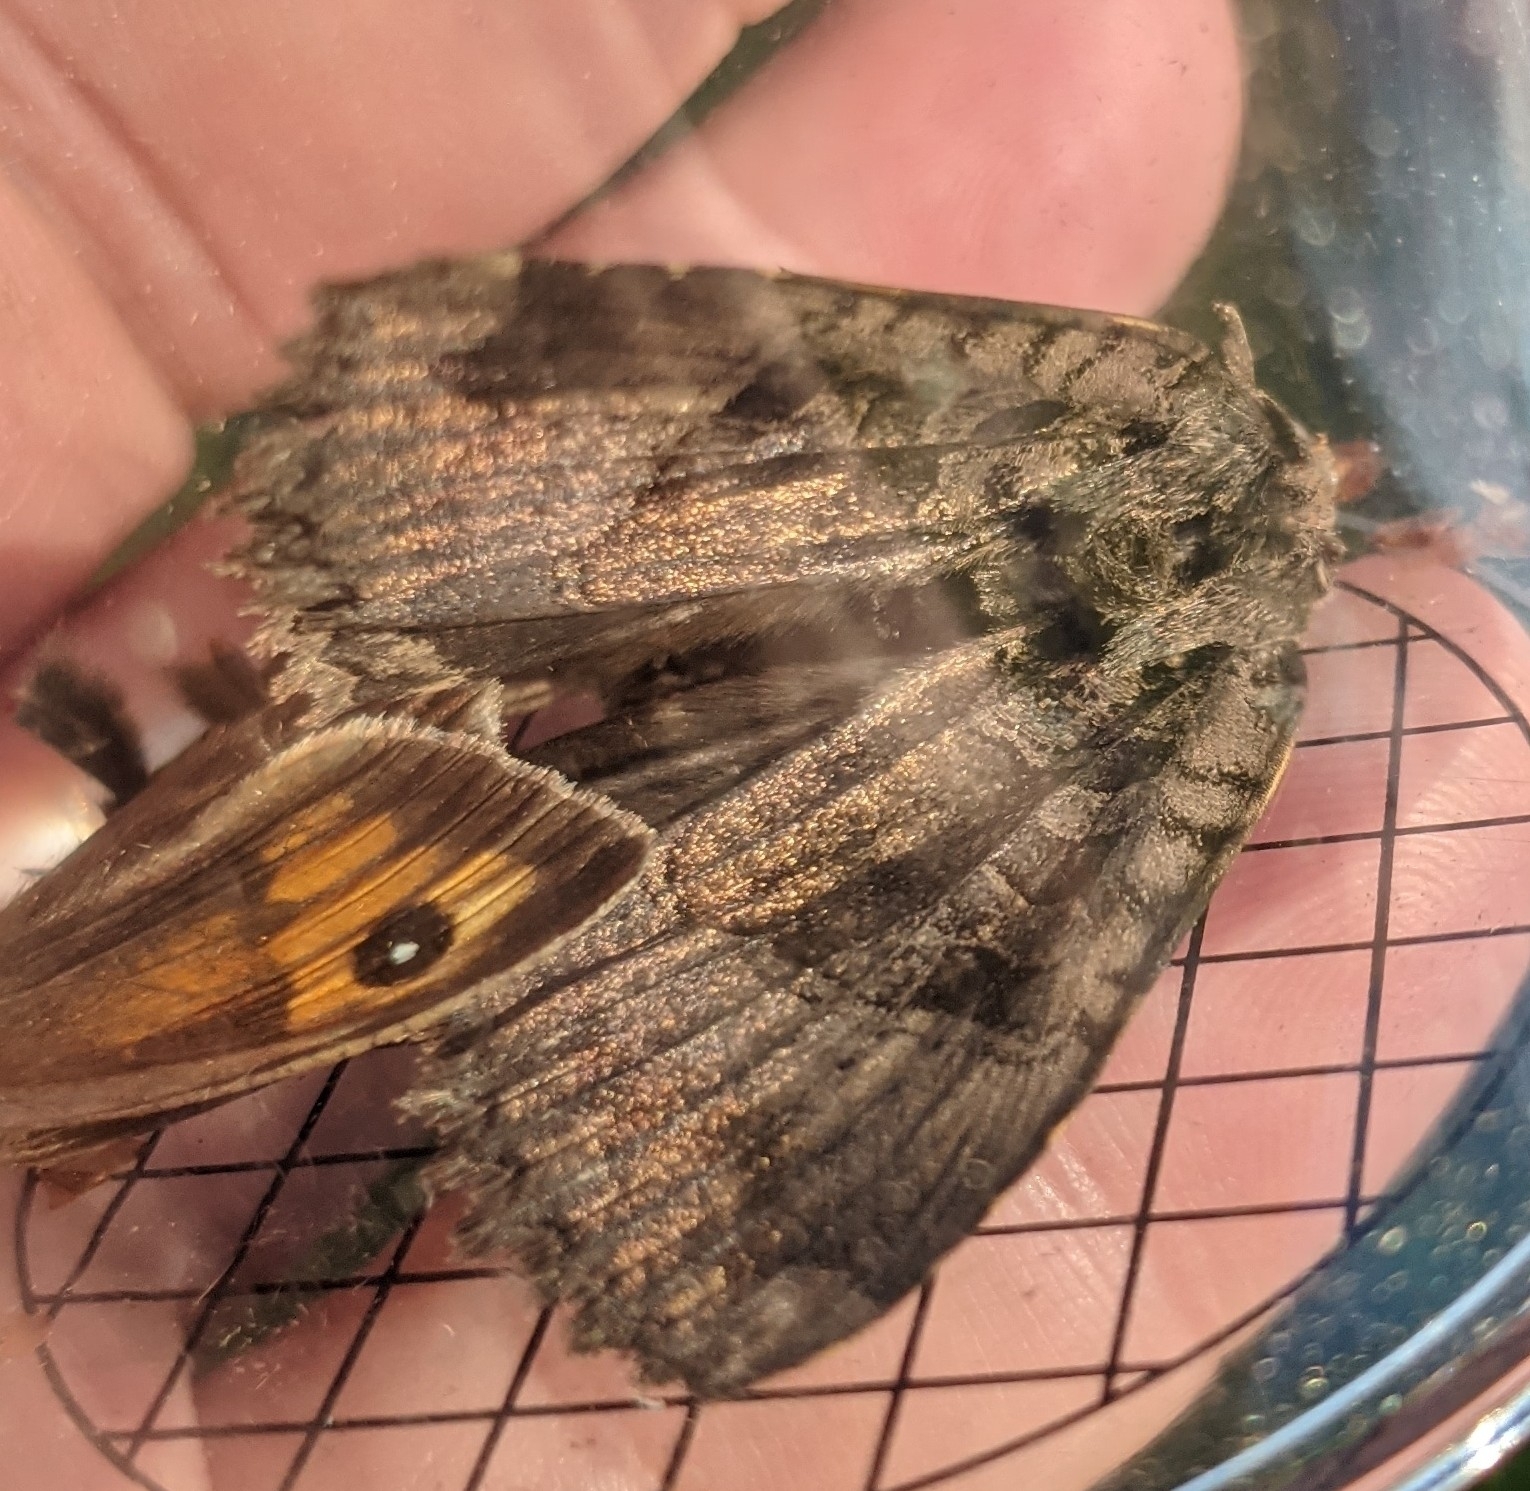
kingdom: Animalia
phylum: Arthropoda
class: Insecta
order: Lepidoptera
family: Noctuidae
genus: Mormo
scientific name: Mormo maura
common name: Old lady
